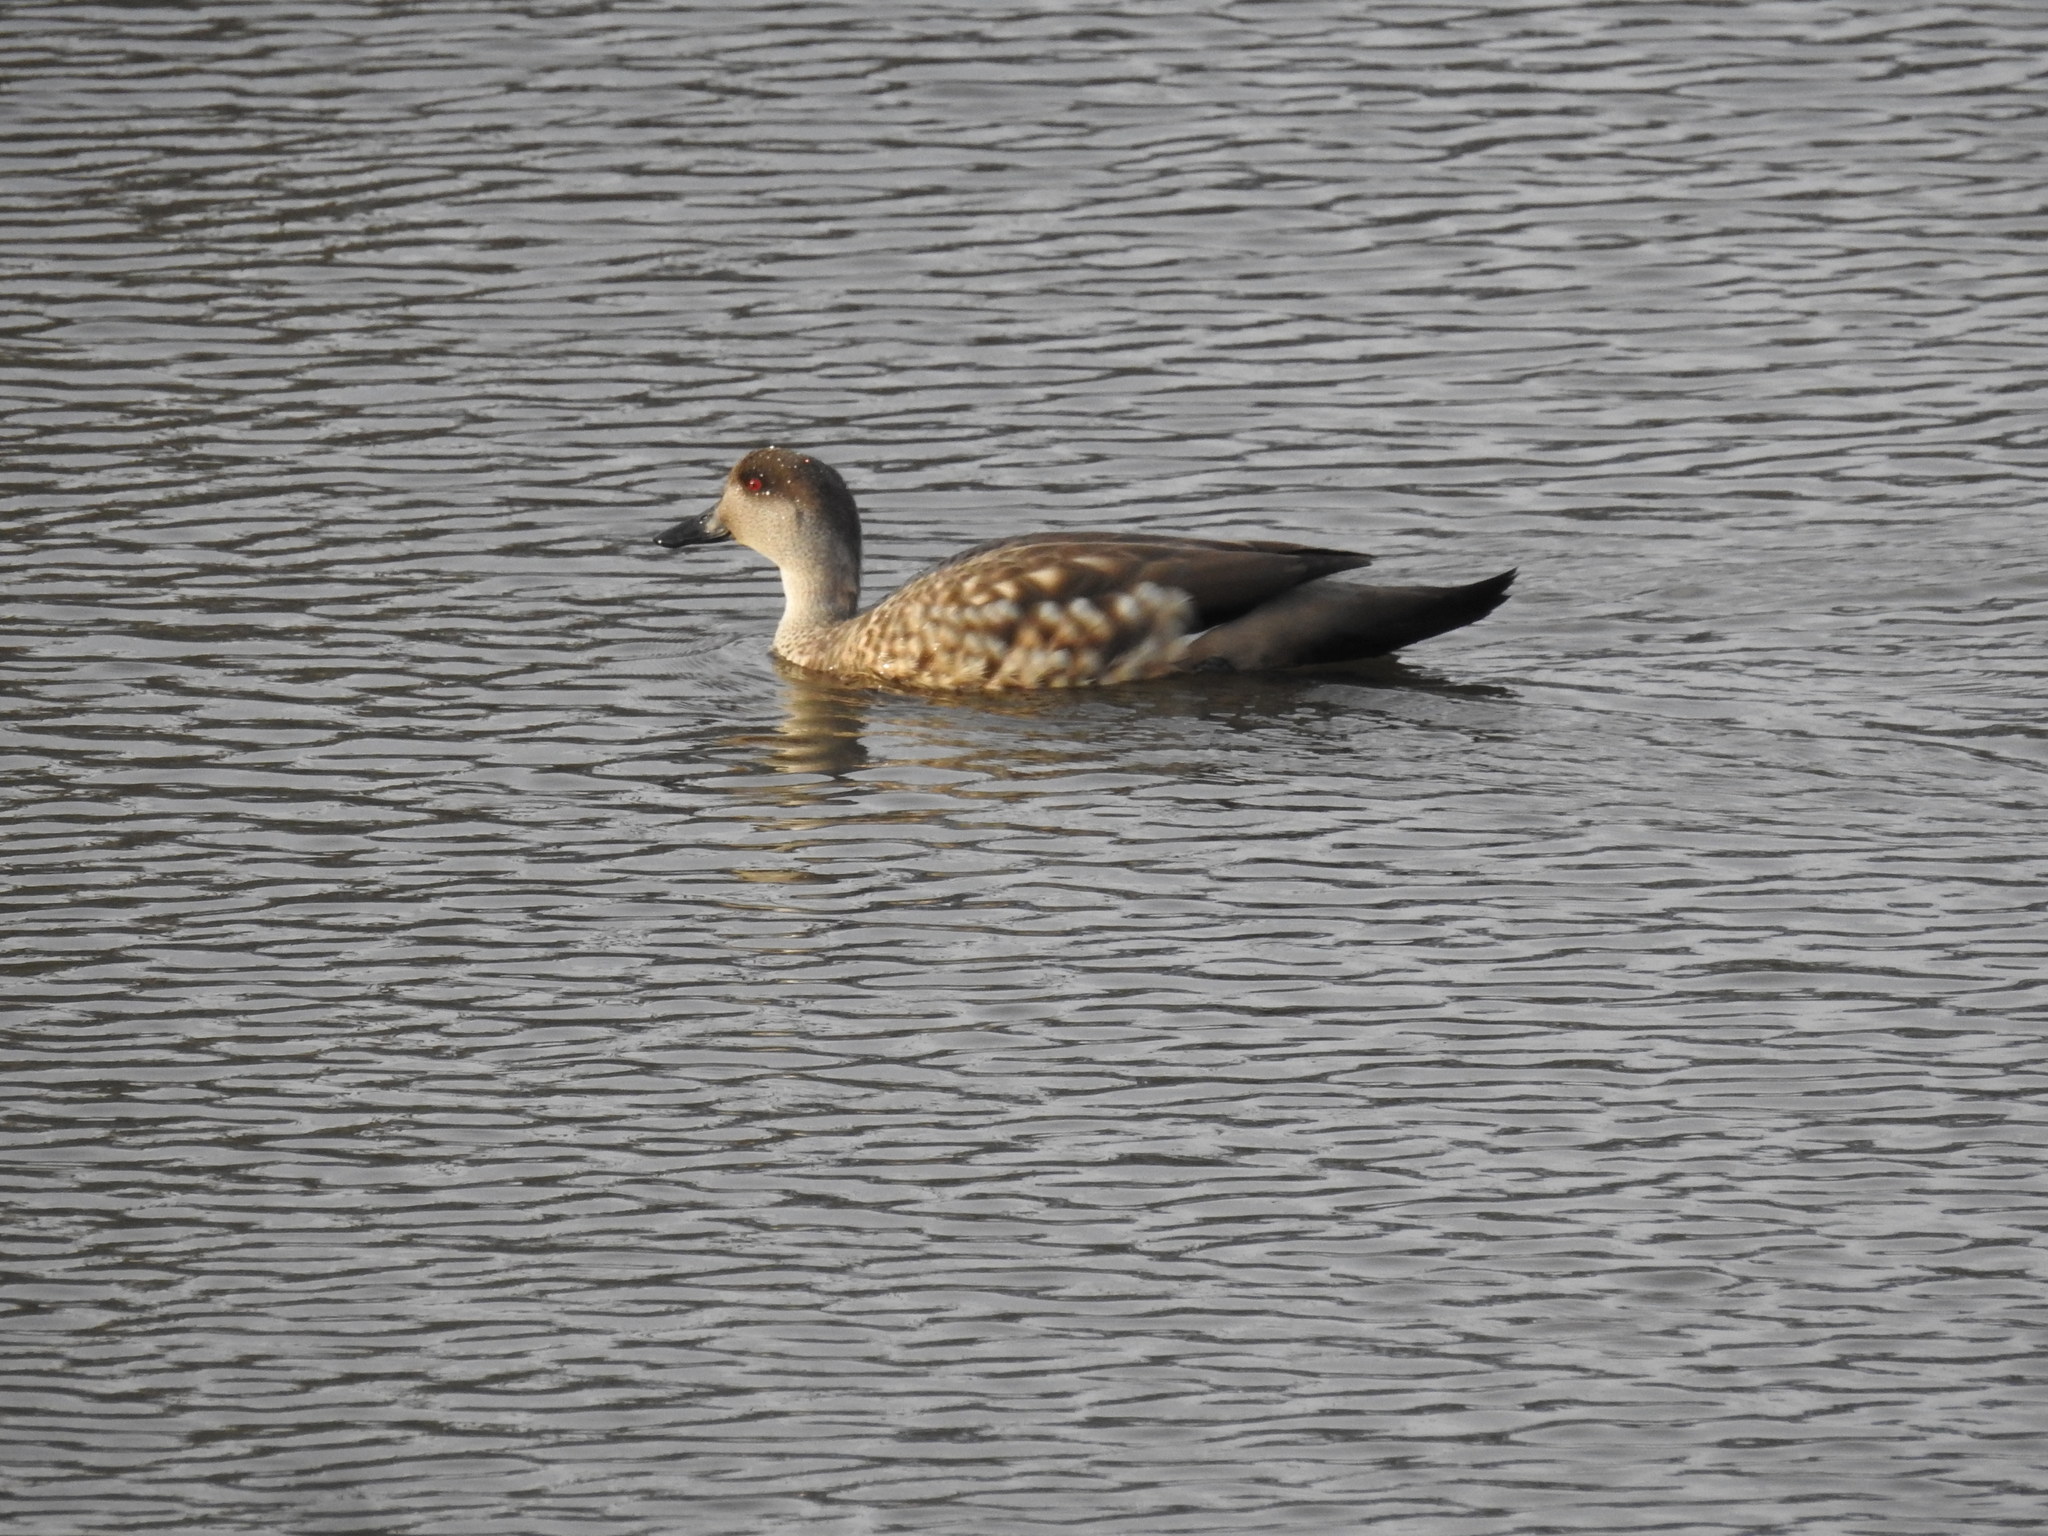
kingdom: Animalia
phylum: Chordata
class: Aves
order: Anseriformes
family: Anatidae
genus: Lophonetta
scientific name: Lophonetta specularioides
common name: Crested duck
